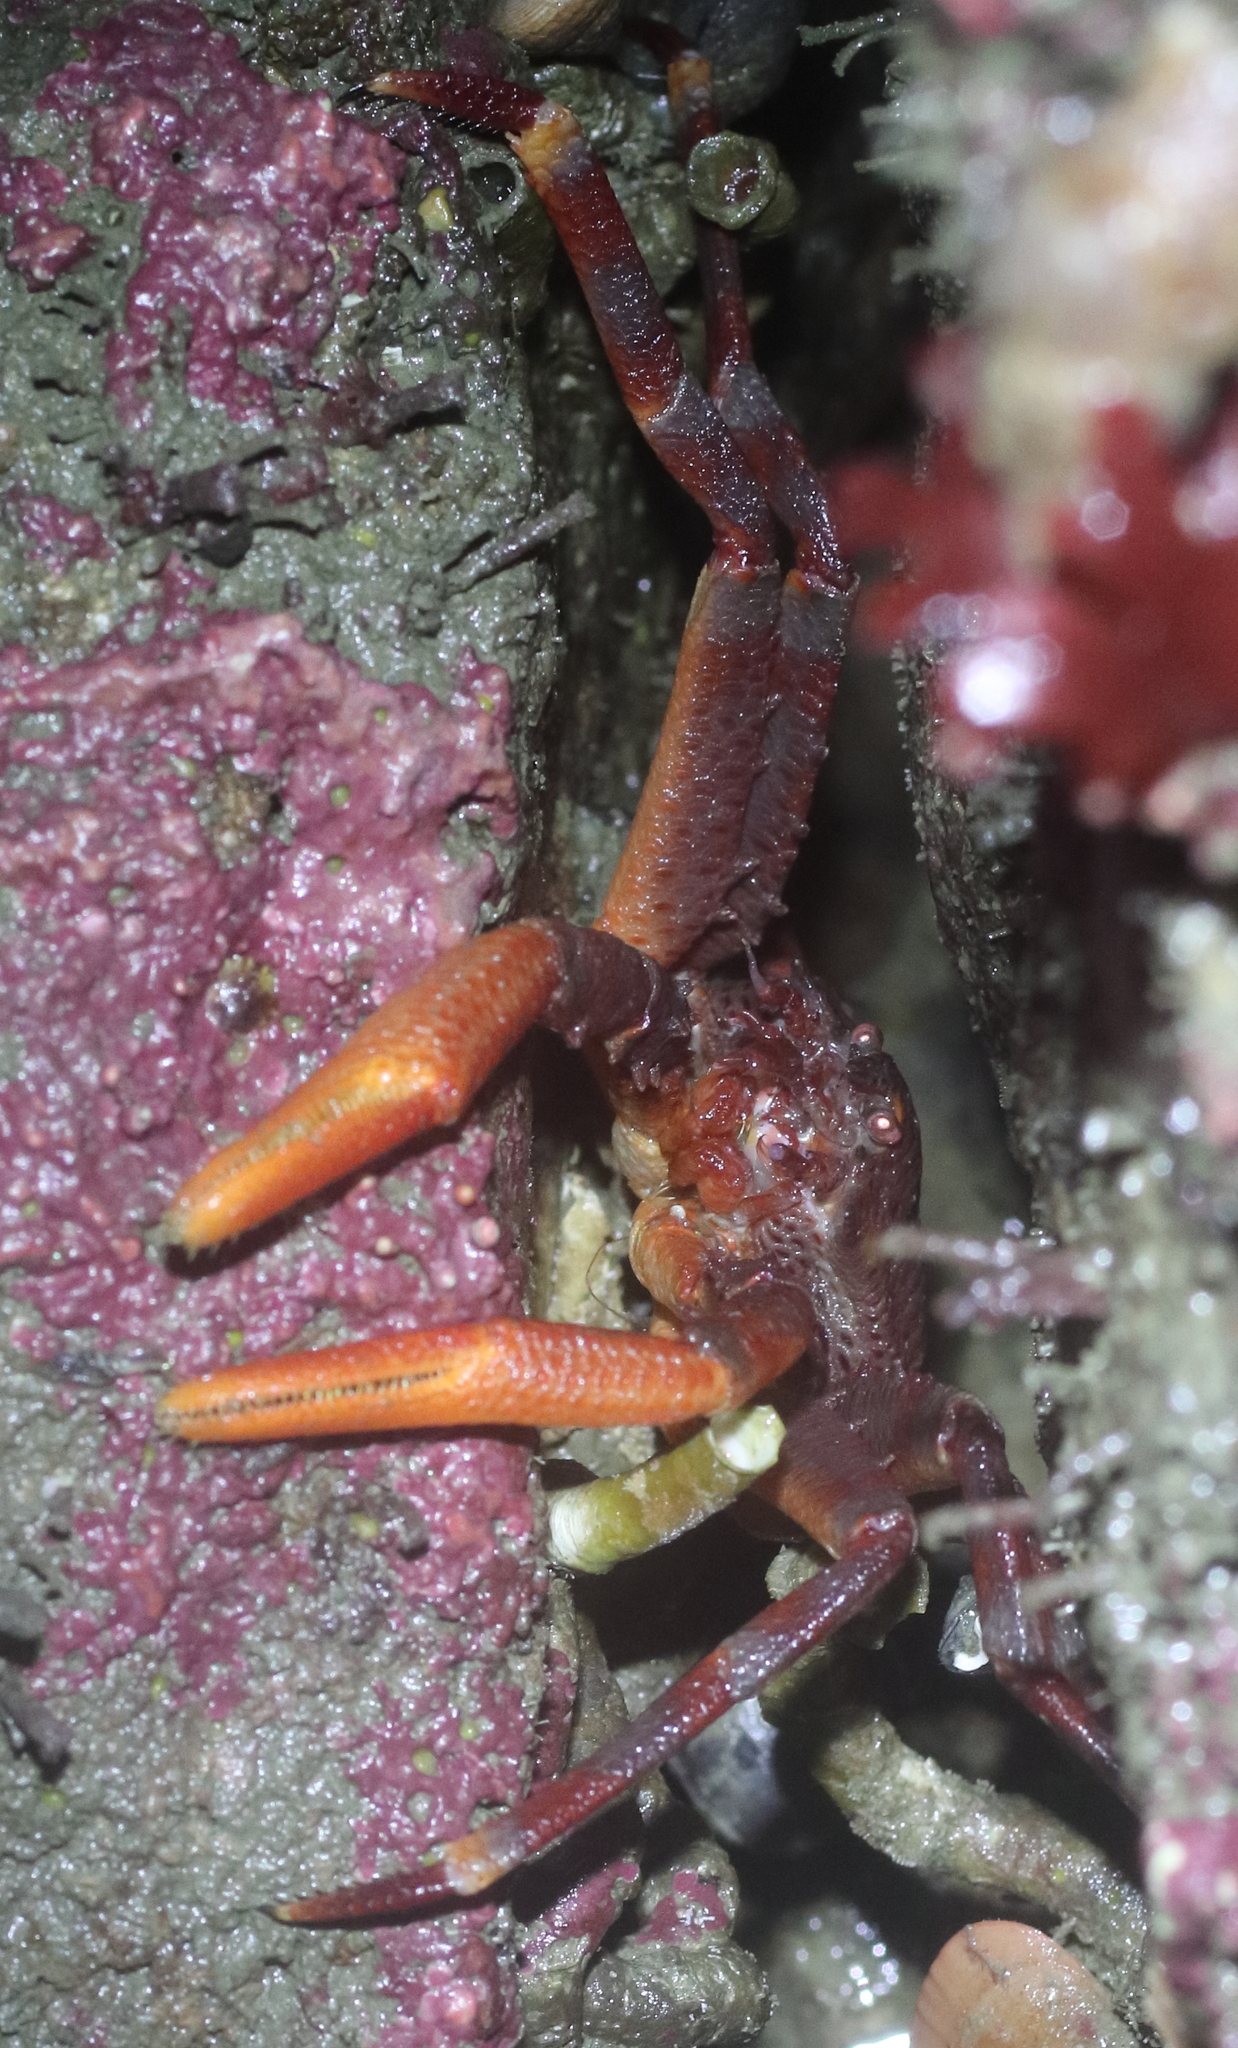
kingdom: Animalia
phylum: Arthropoda
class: Malacostraca
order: Decapoda
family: Hapalogastridae
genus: Placetron
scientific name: Placetron wosnessenskii
